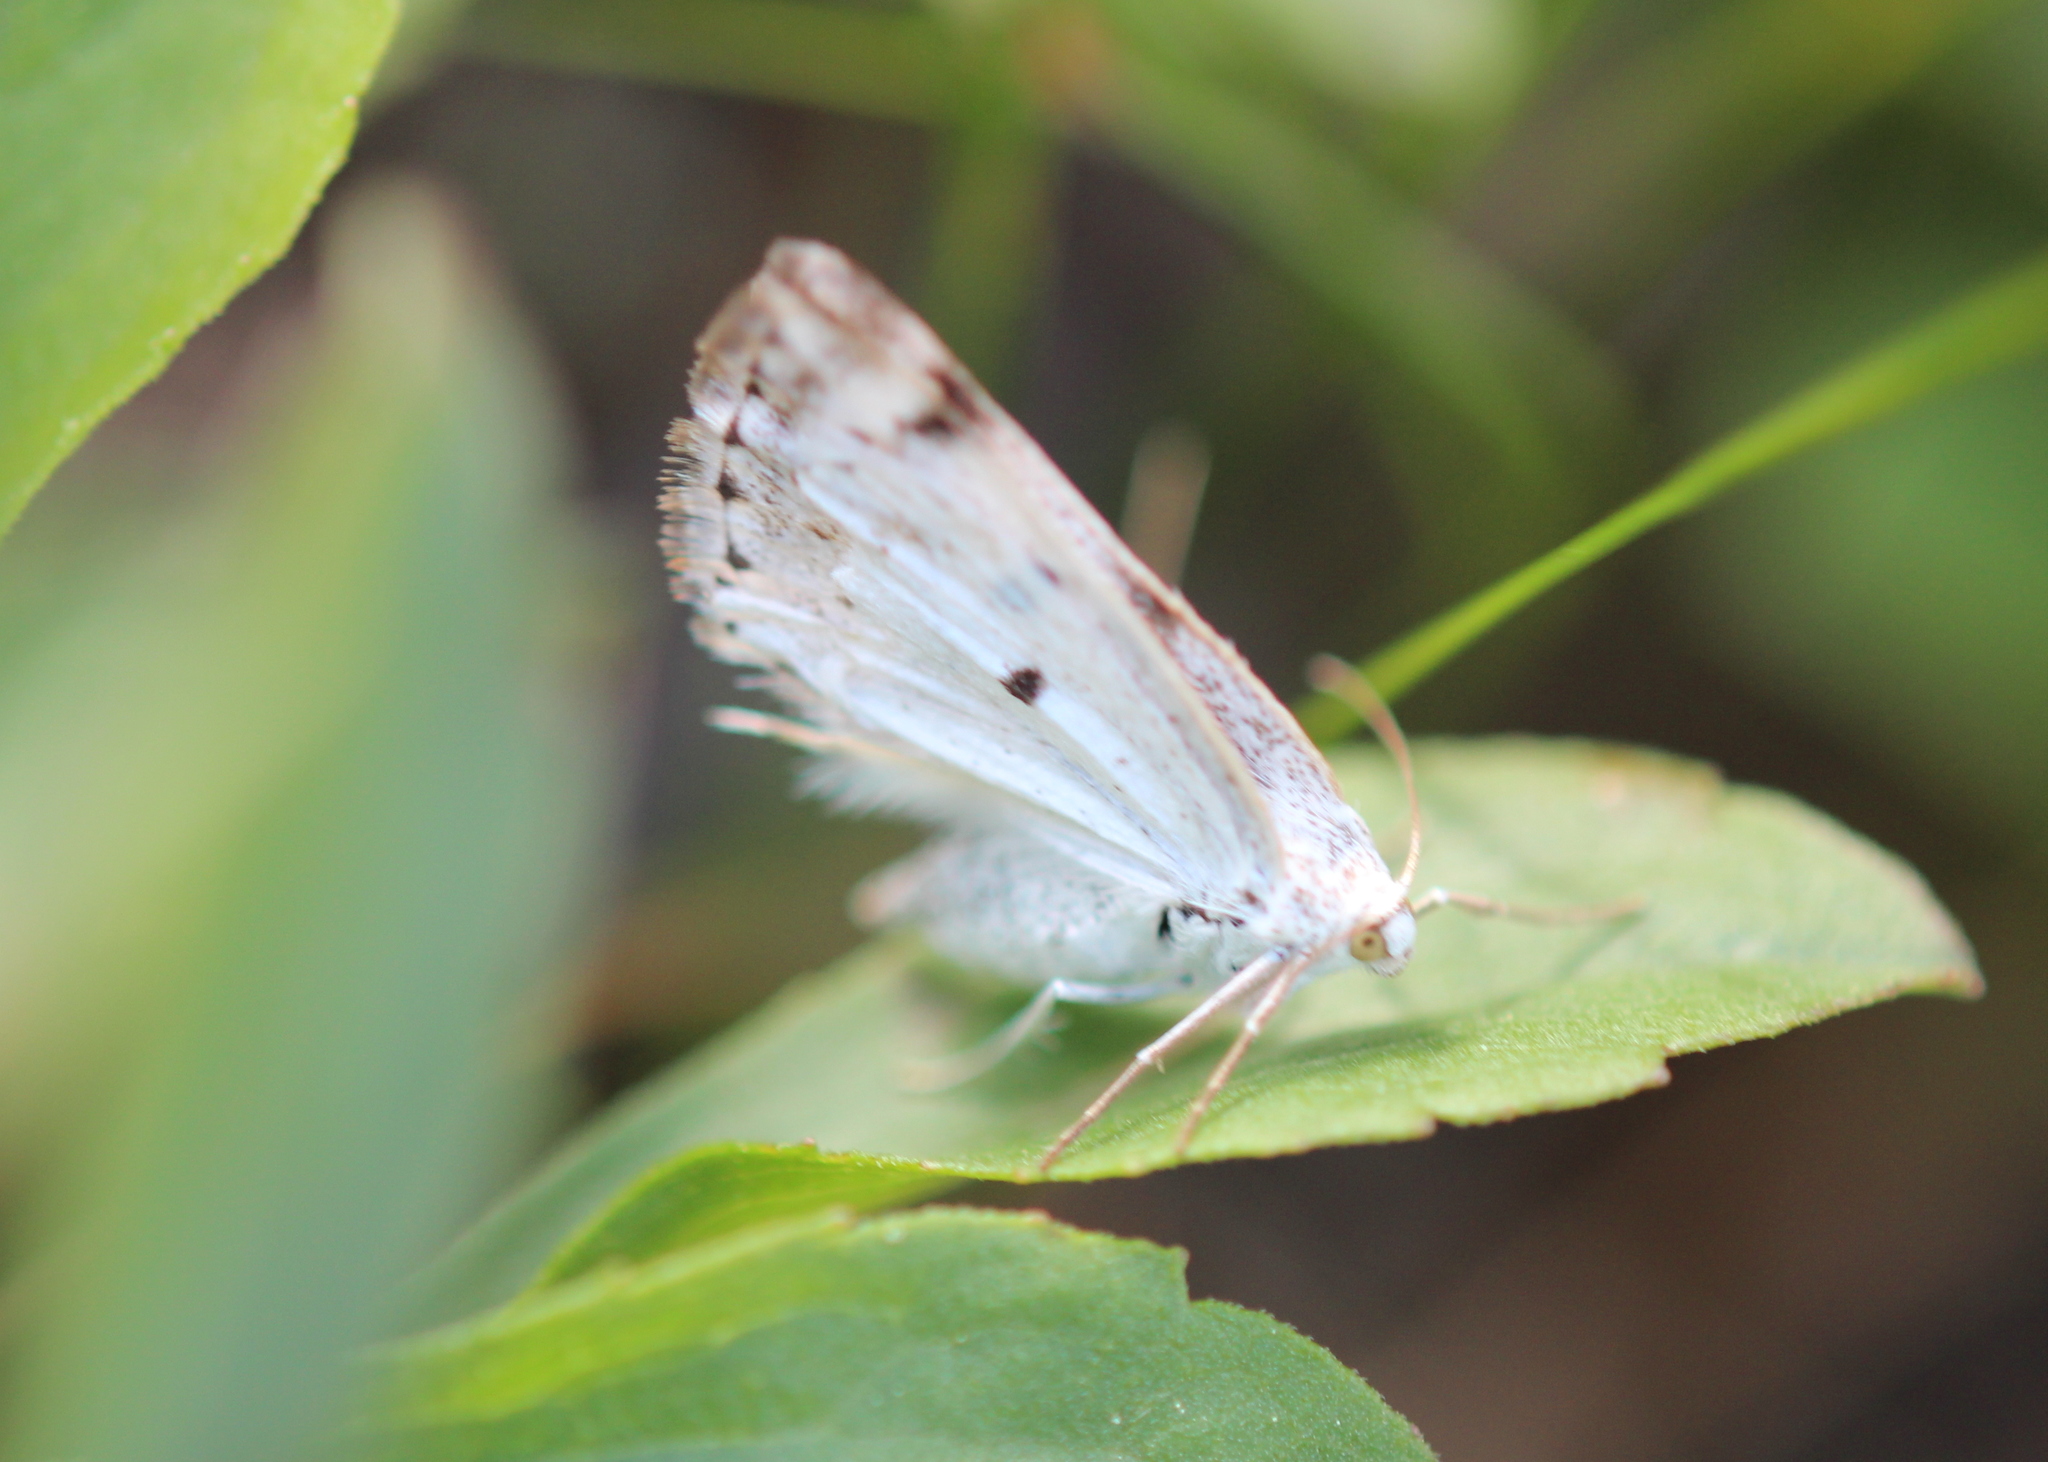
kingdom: Animalia
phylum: Arthropoda
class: Insecta
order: Lepidoptera
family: Geometridae
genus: Lomographa
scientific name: Lomographa semiclarata
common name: Bluish spring moth
